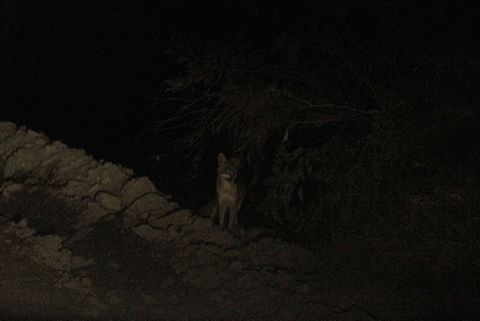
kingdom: Animalia
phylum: Chordata
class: Mammalia
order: Carnivora
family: Canidae
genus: Urocyon
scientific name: Urocyon cinereoargenteus
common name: Gray fox
